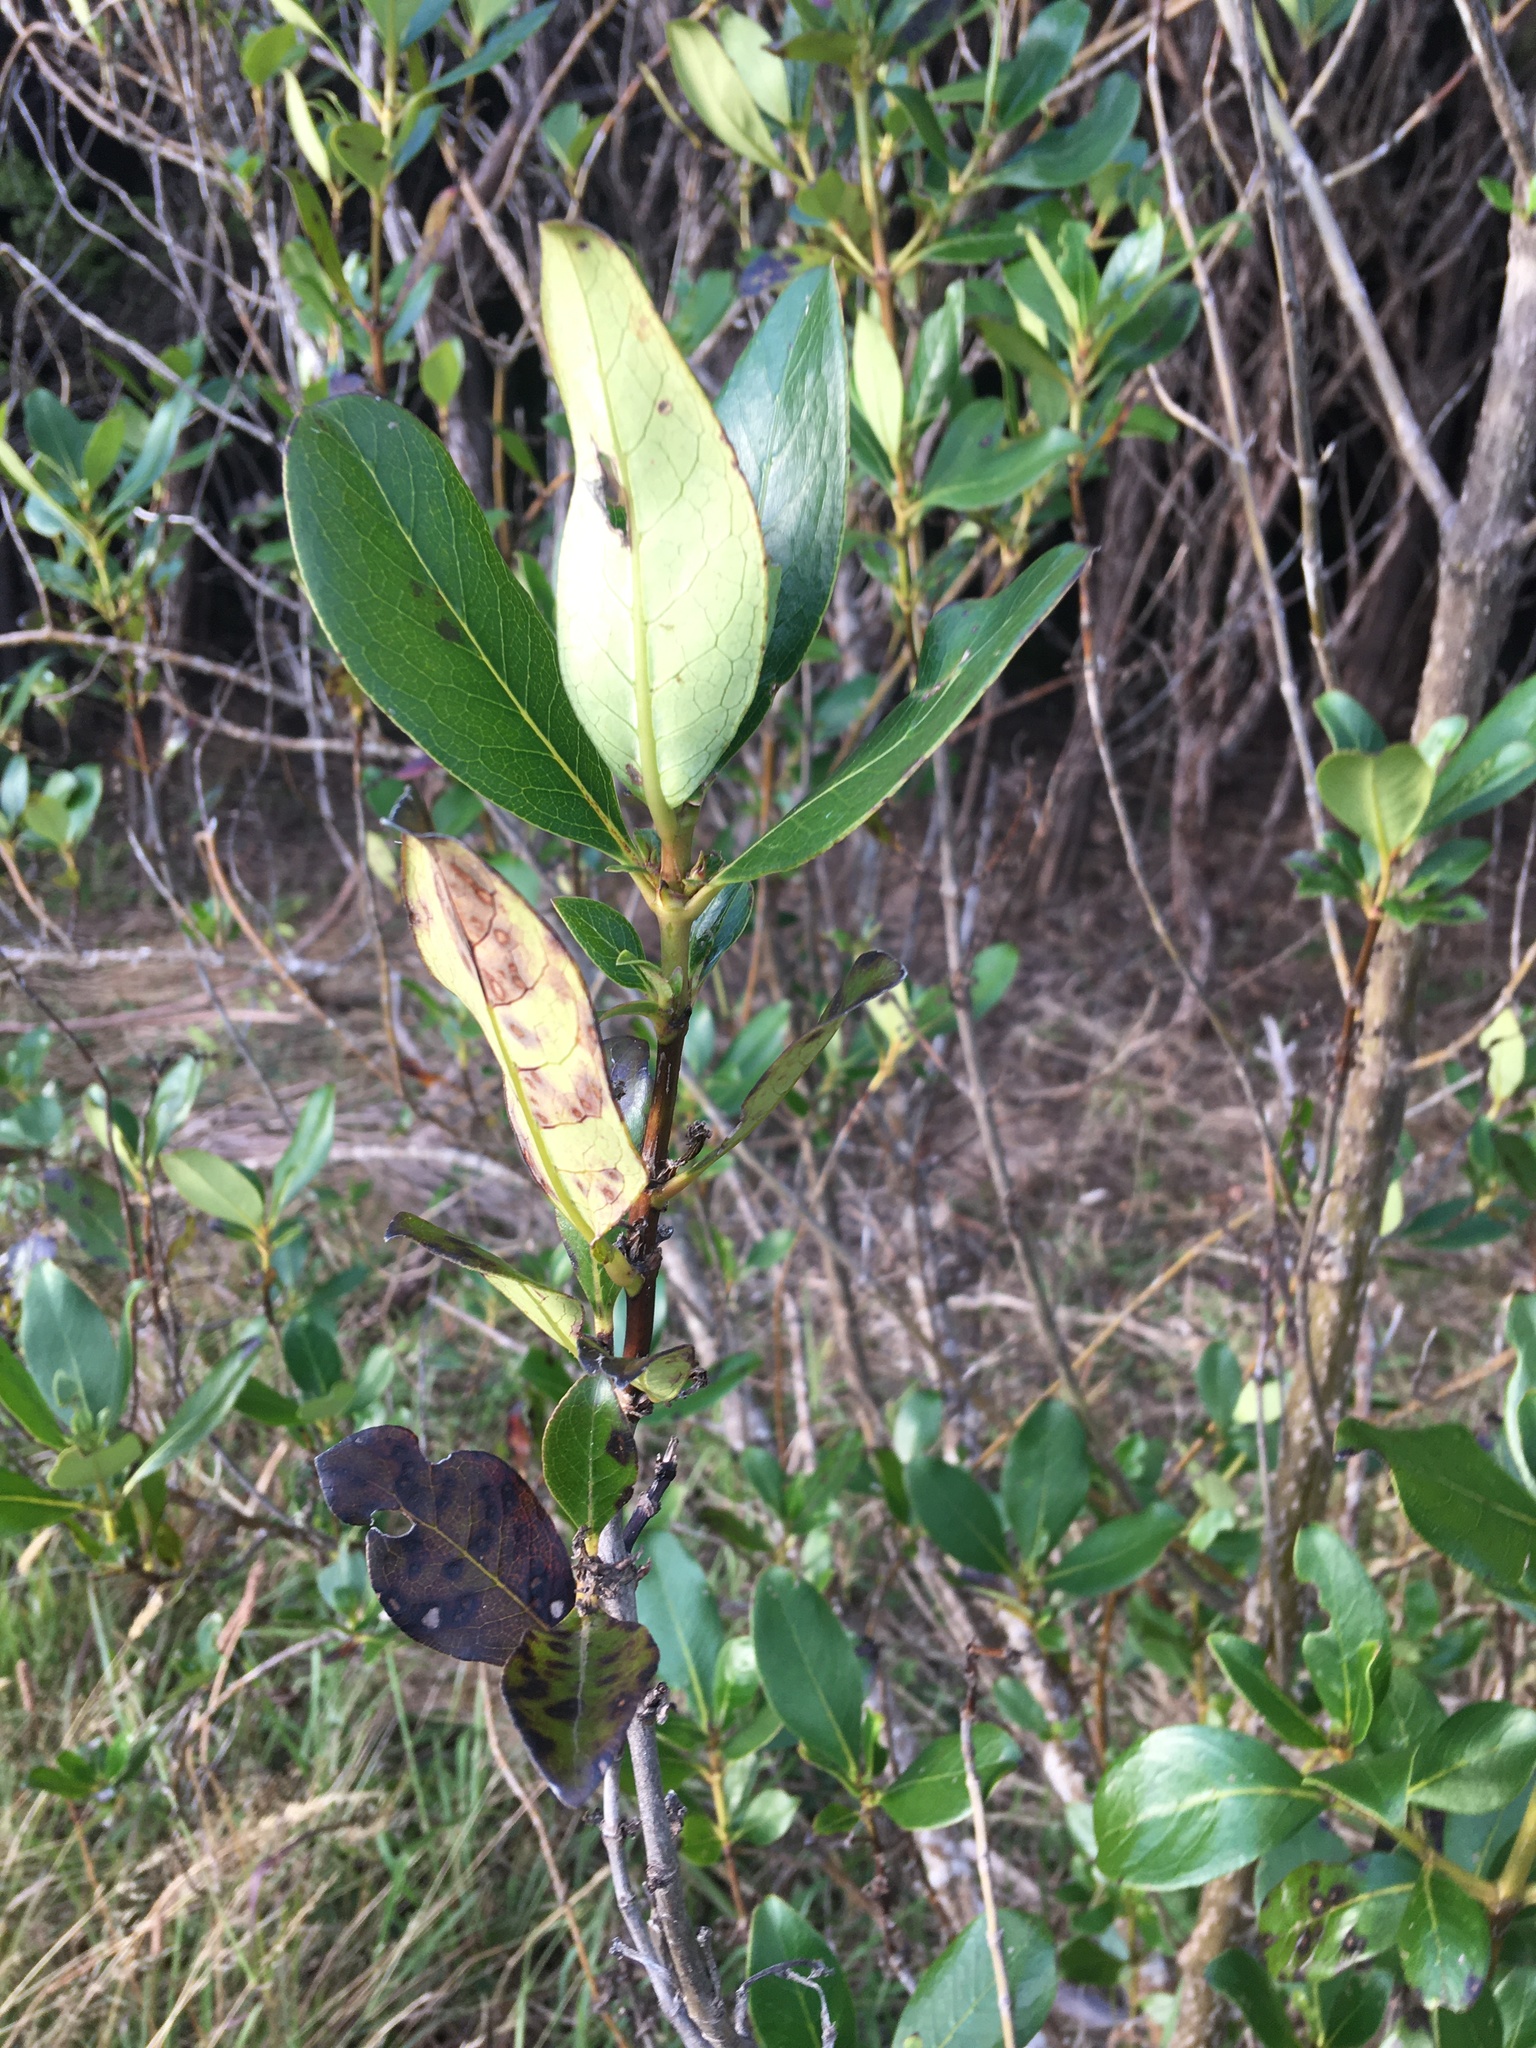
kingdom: Plantae
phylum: Tracheophyta
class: Magnoliopsida
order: Gentianales
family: Rubiaceae
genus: Coprosma
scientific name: Coprosma robusta
